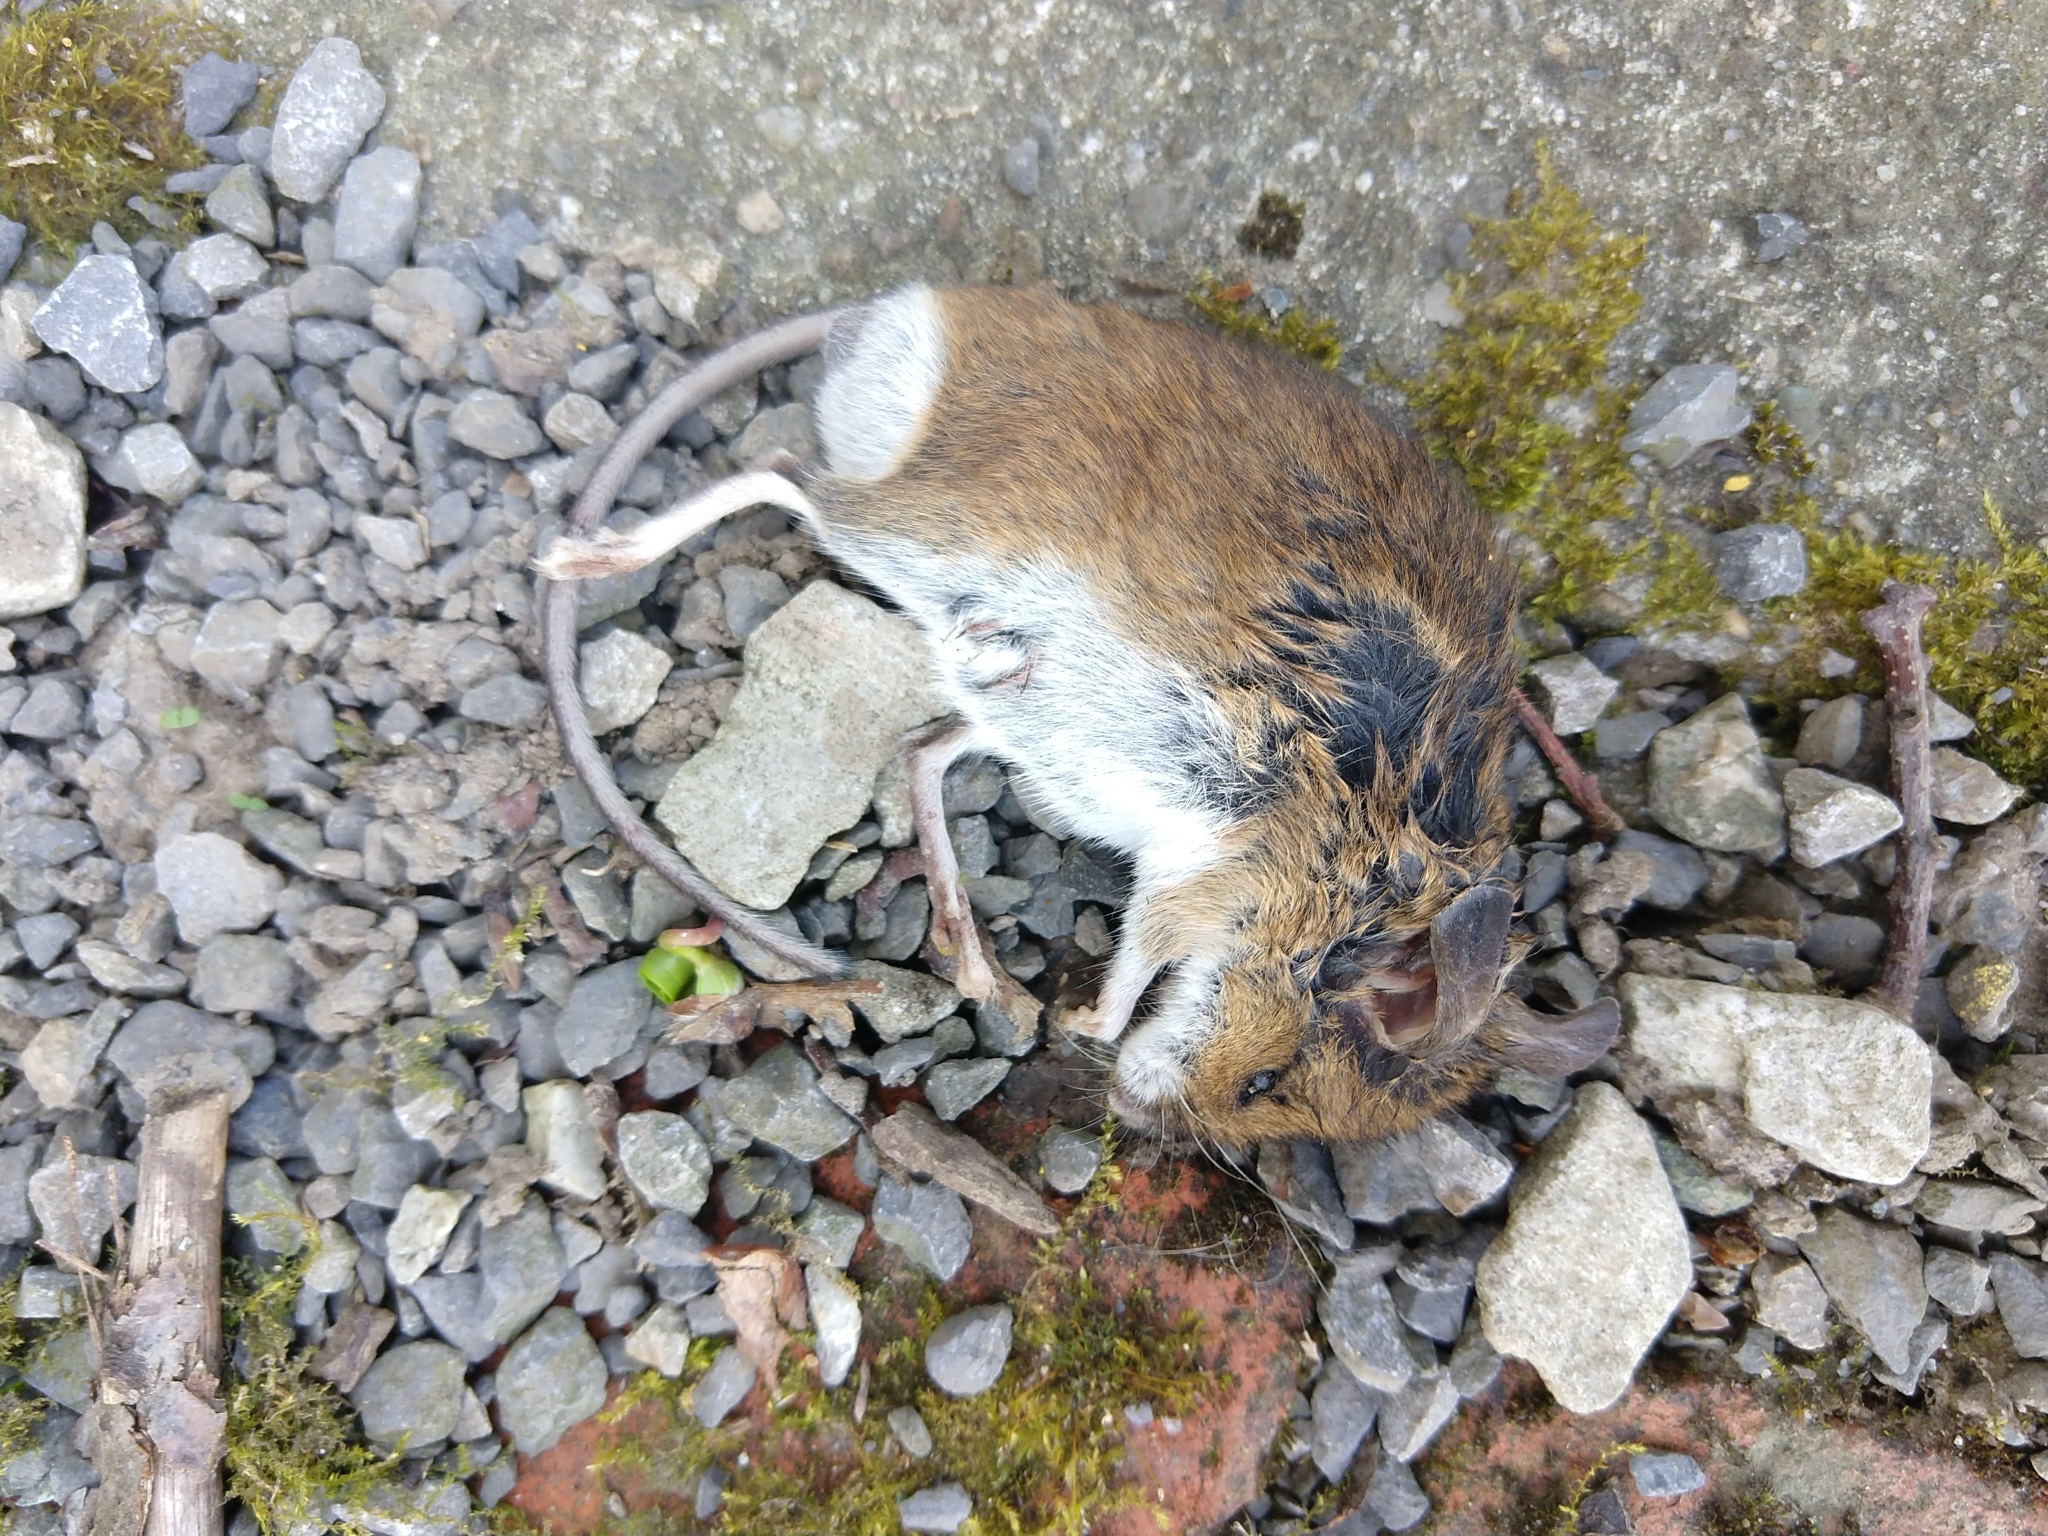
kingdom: Animalia
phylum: Chordata
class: Mammalia
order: Rodentia
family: Muridae
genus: Apodemus
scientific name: Apodemus sylvaticus
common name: Wood mouse
